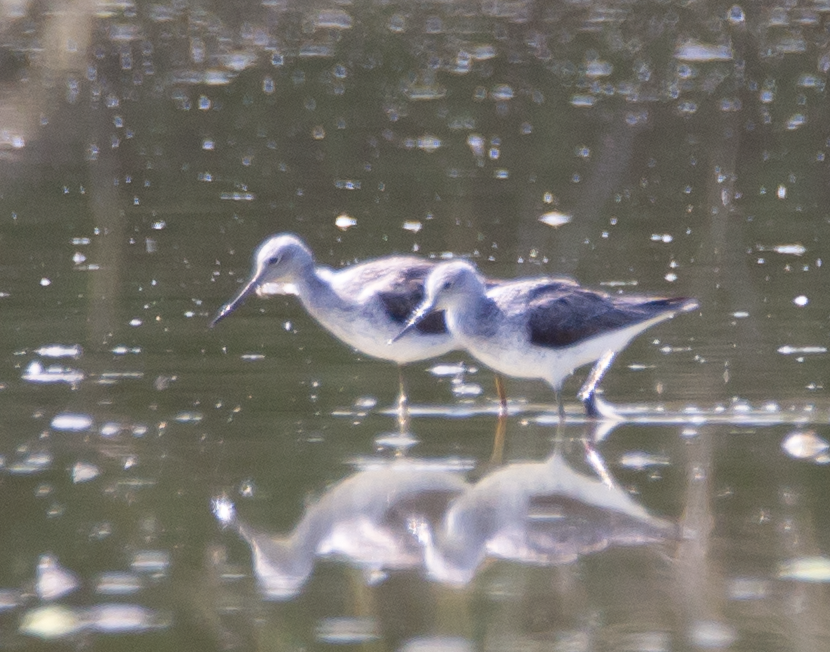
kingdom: Animalia
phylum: Chordata
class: Aves
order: Charadriiformes
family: Scolopacidae
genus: Tringa
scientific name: Tringa nebularia
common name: Common greenshank
